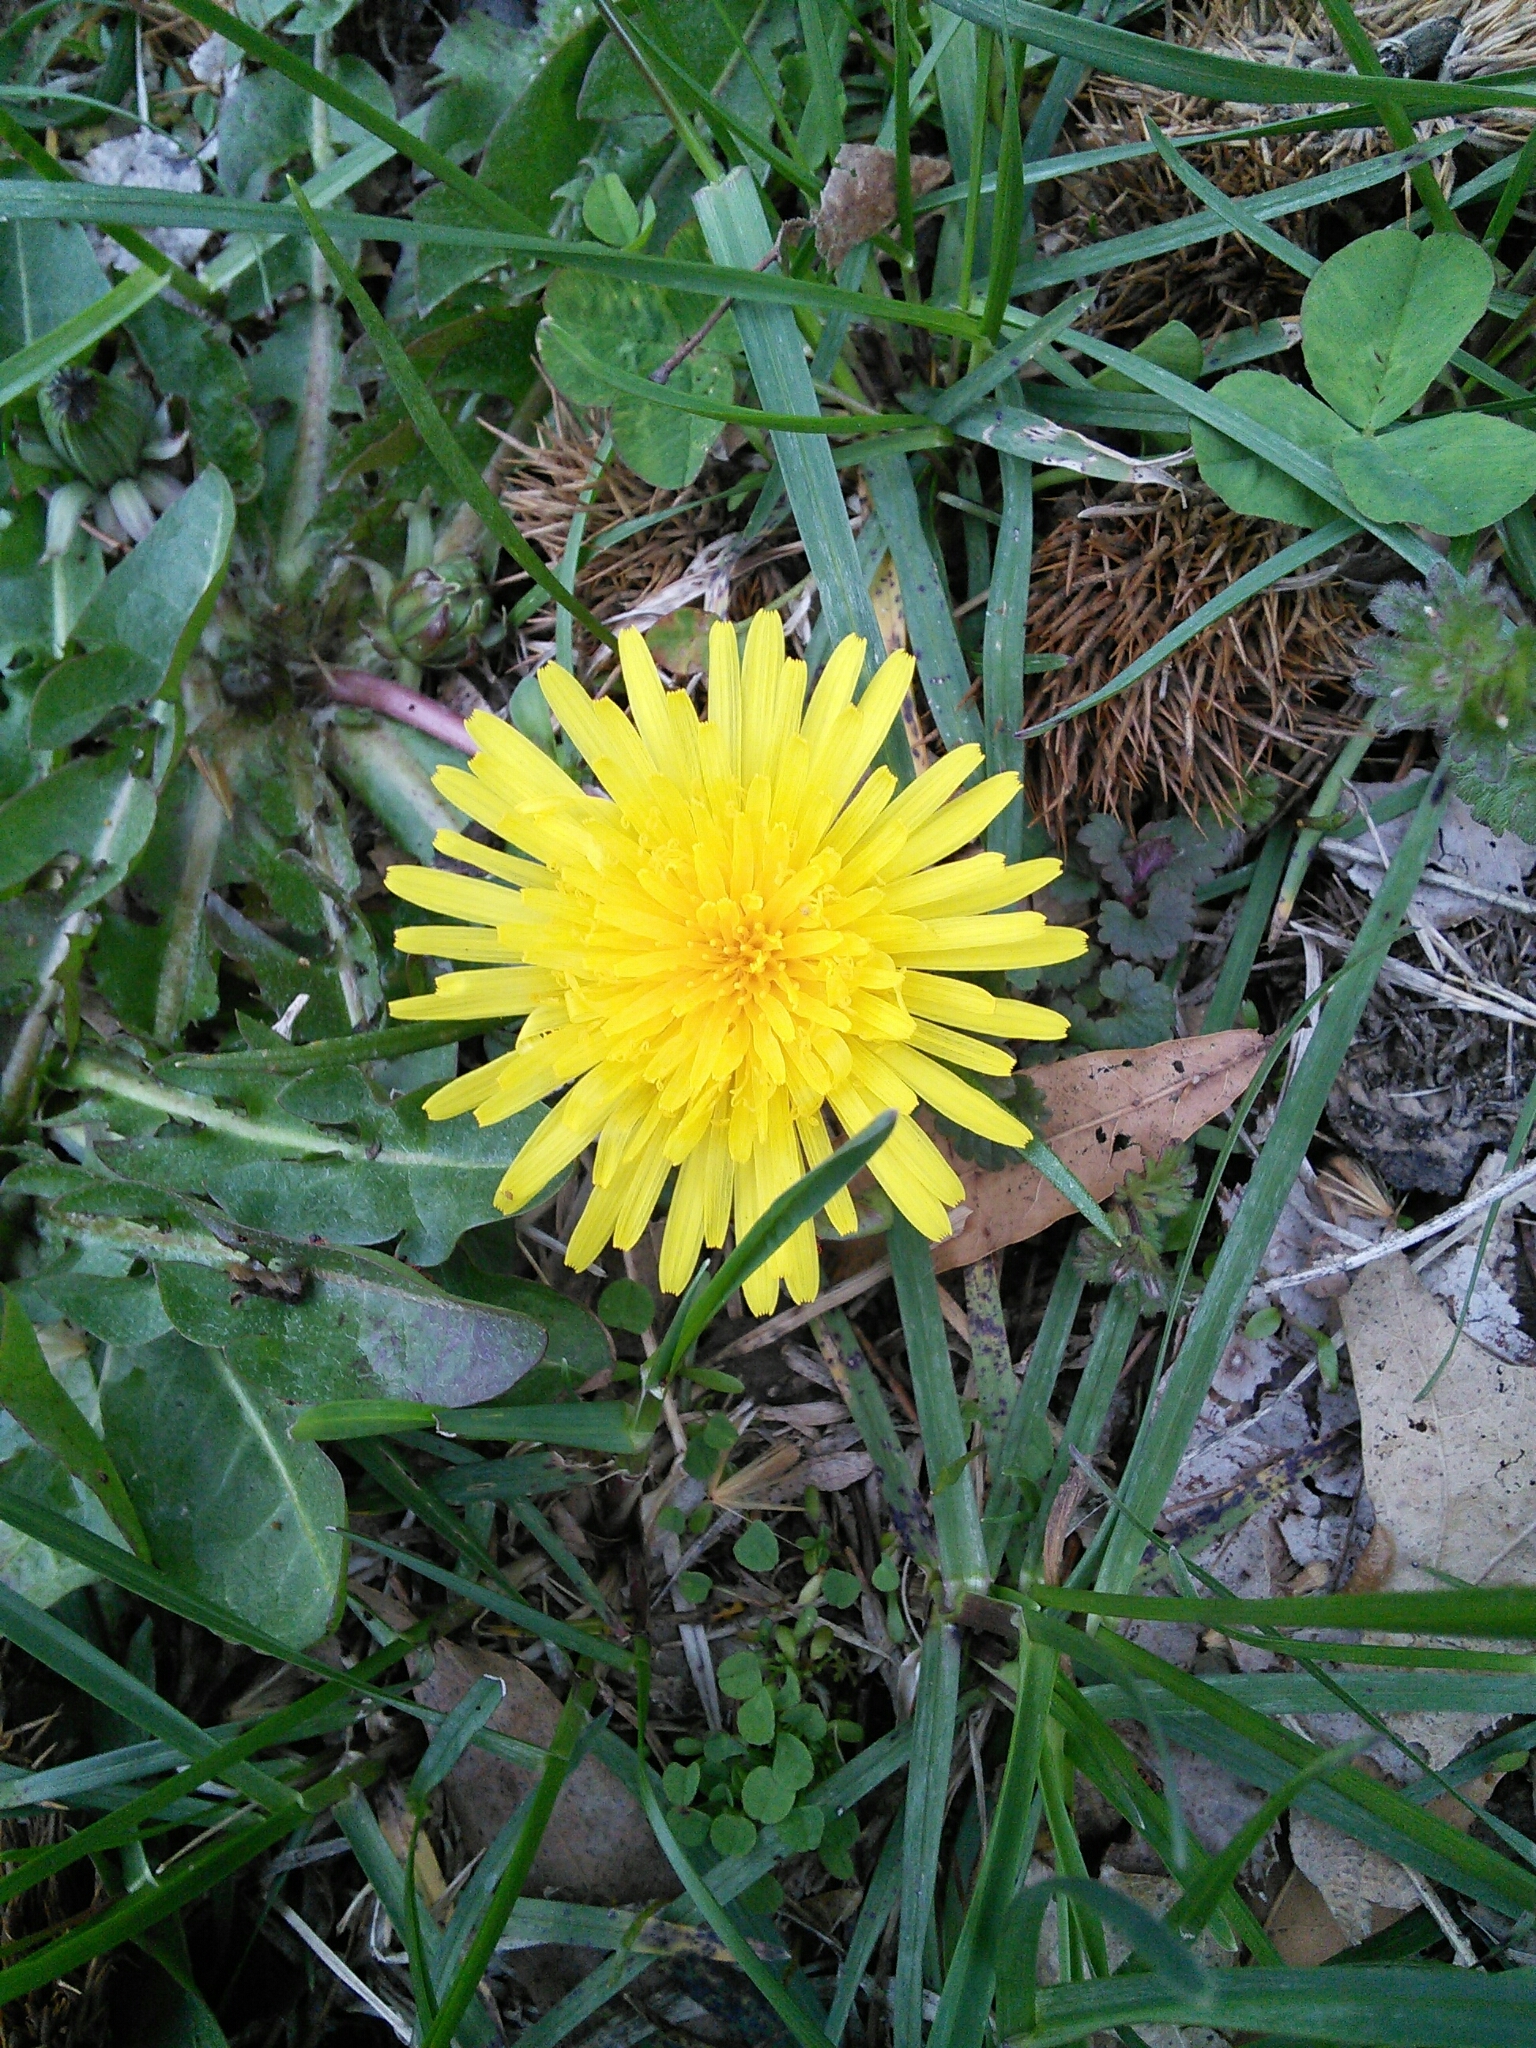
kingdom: Plantae
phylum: Tracheophyta
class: Magnoliopsida
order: Asterales
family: Asteraceae
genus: Taraxacum
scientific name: Taraxacum officinale
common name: Common dandelion
